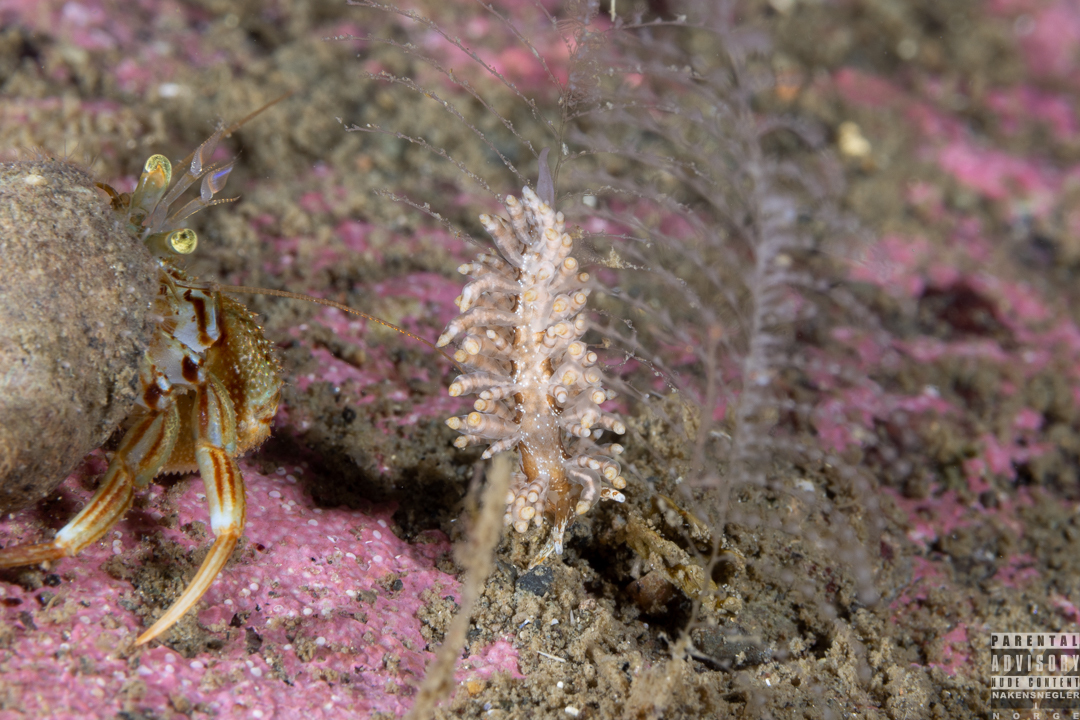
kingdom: Animalia
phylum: Mollusca
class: Gastropoda
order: Nudibranchia
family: Eubranchidae
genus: Eubranchus
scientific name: Eubranchus vittatus
